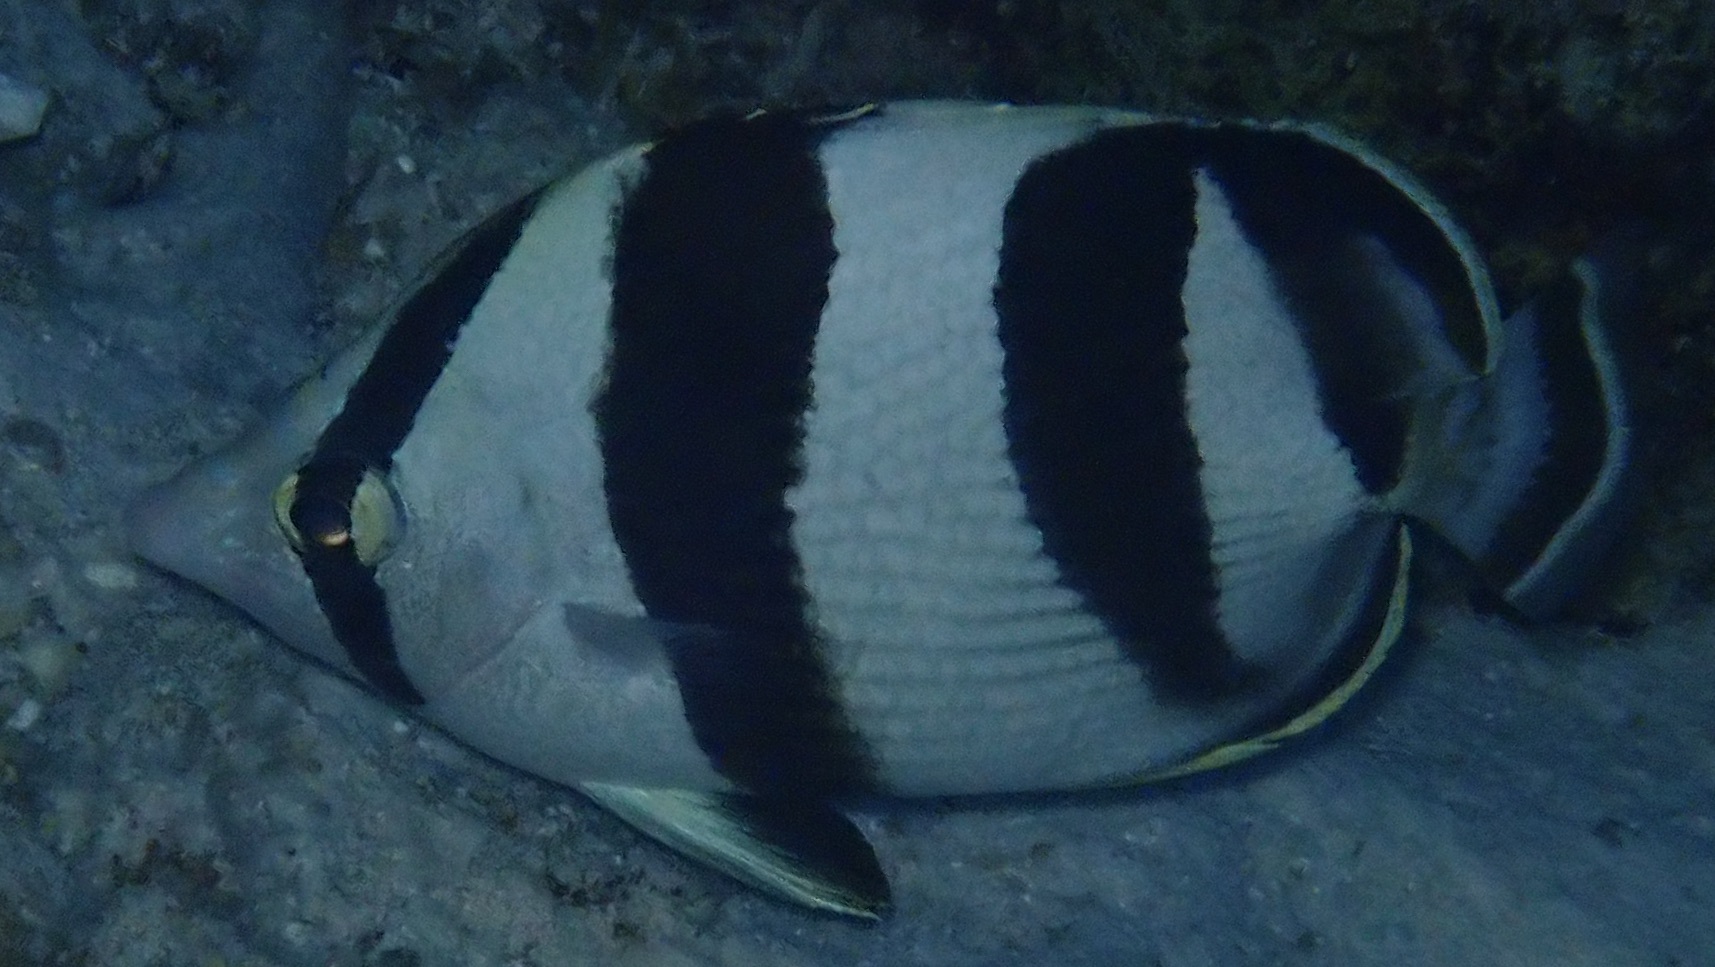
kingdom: Animalia
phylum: Chordata
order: Perciformes
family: Chaetodontidae
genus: Chaetodon
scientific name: Chaetodon striatus
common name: Banded butterflyfish
